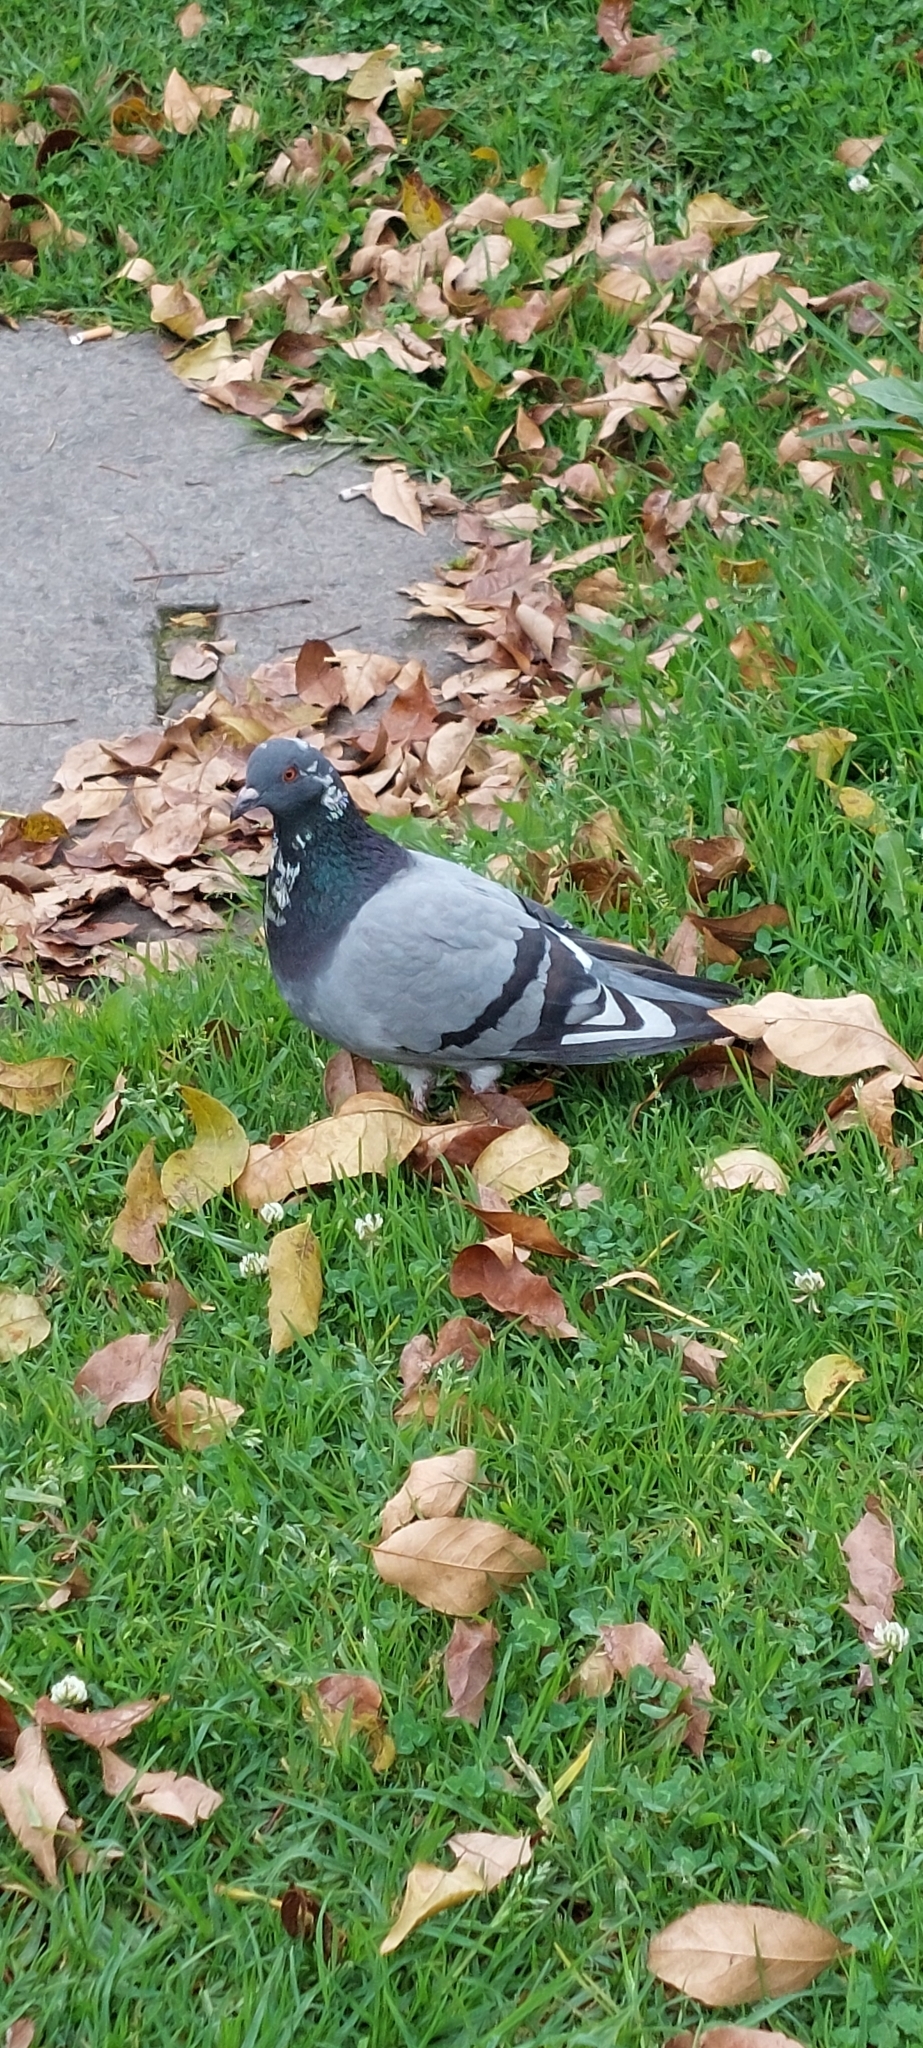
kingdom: Animalia
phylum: Chordata
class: Aves
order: Columbiformes
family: Columbidae
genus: Columba
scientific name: Columba livia
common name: Rock pigeon
